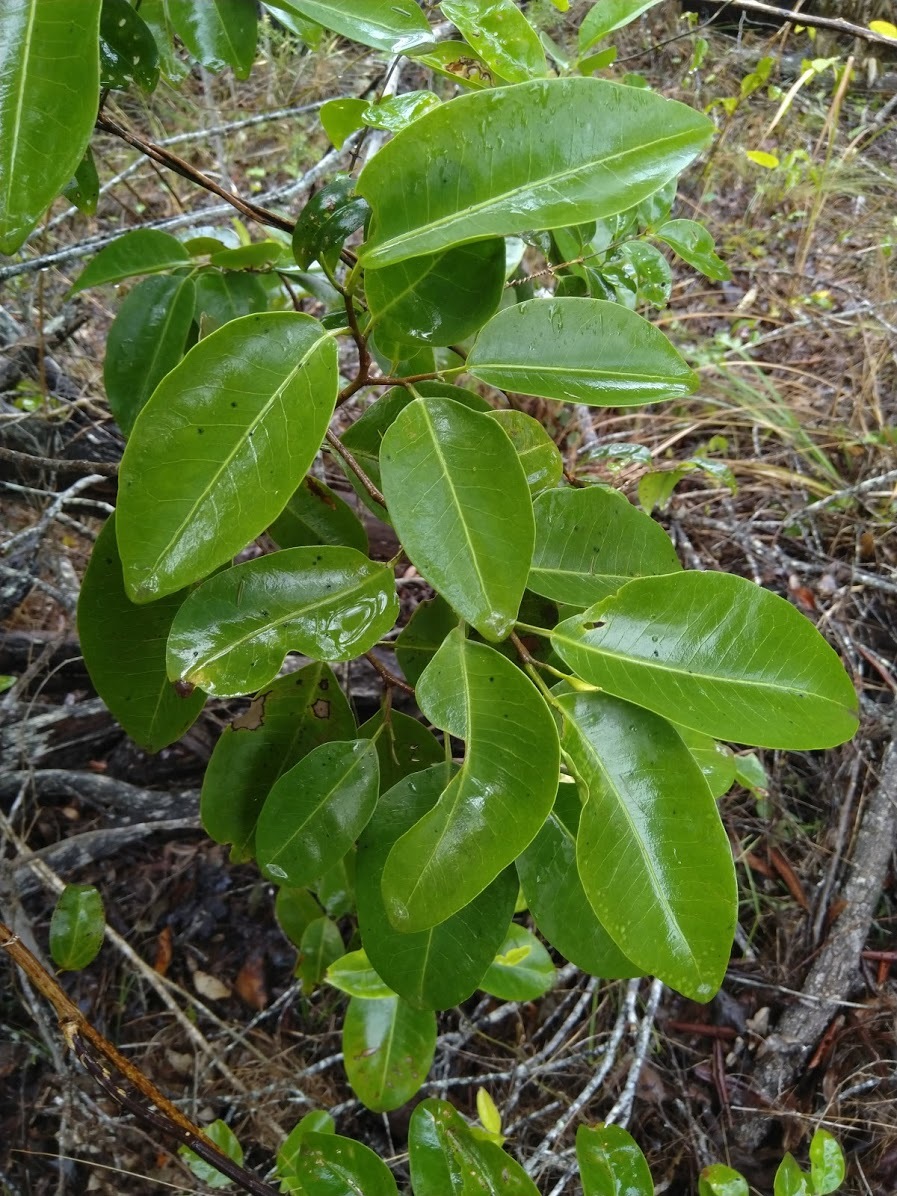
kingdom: Plantae
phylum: Tracheophyta
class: Magnoliopsida
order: Sapindales
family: Rutaceae
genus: Geijera
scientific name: Geijera salicifolia
